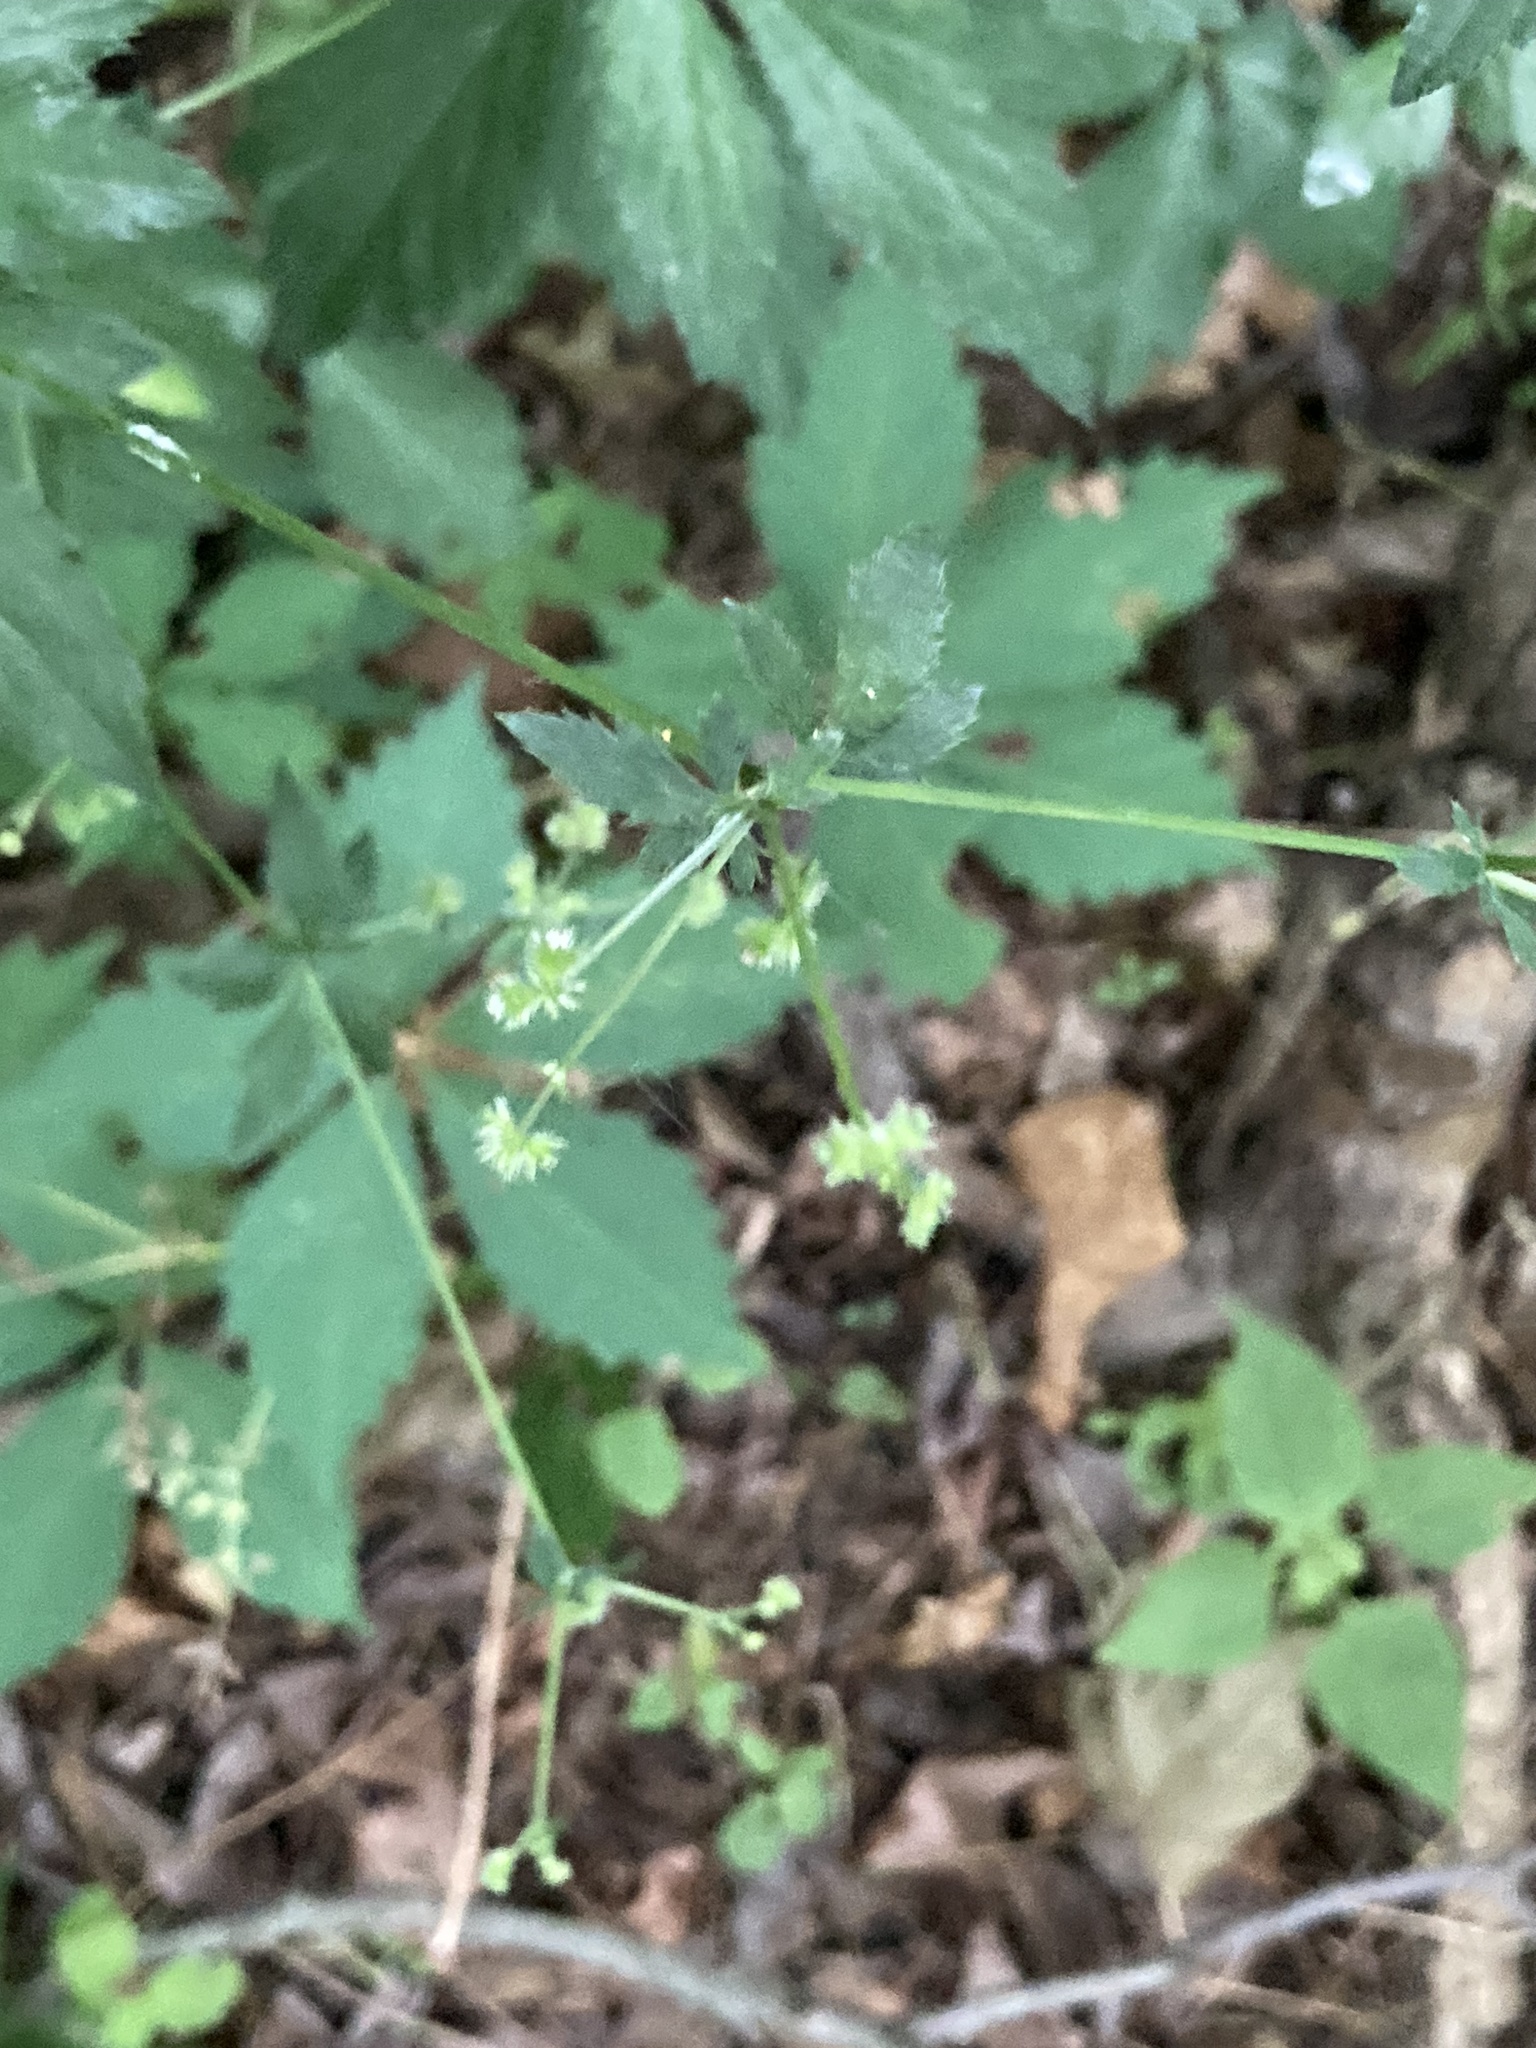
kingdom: Plantae
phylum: Tracheophyta
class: Magnoliopsida
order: Apiales
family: Apiaceae
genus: Sanicula
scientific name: Sanicula canadensis
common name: Canada sanicle
